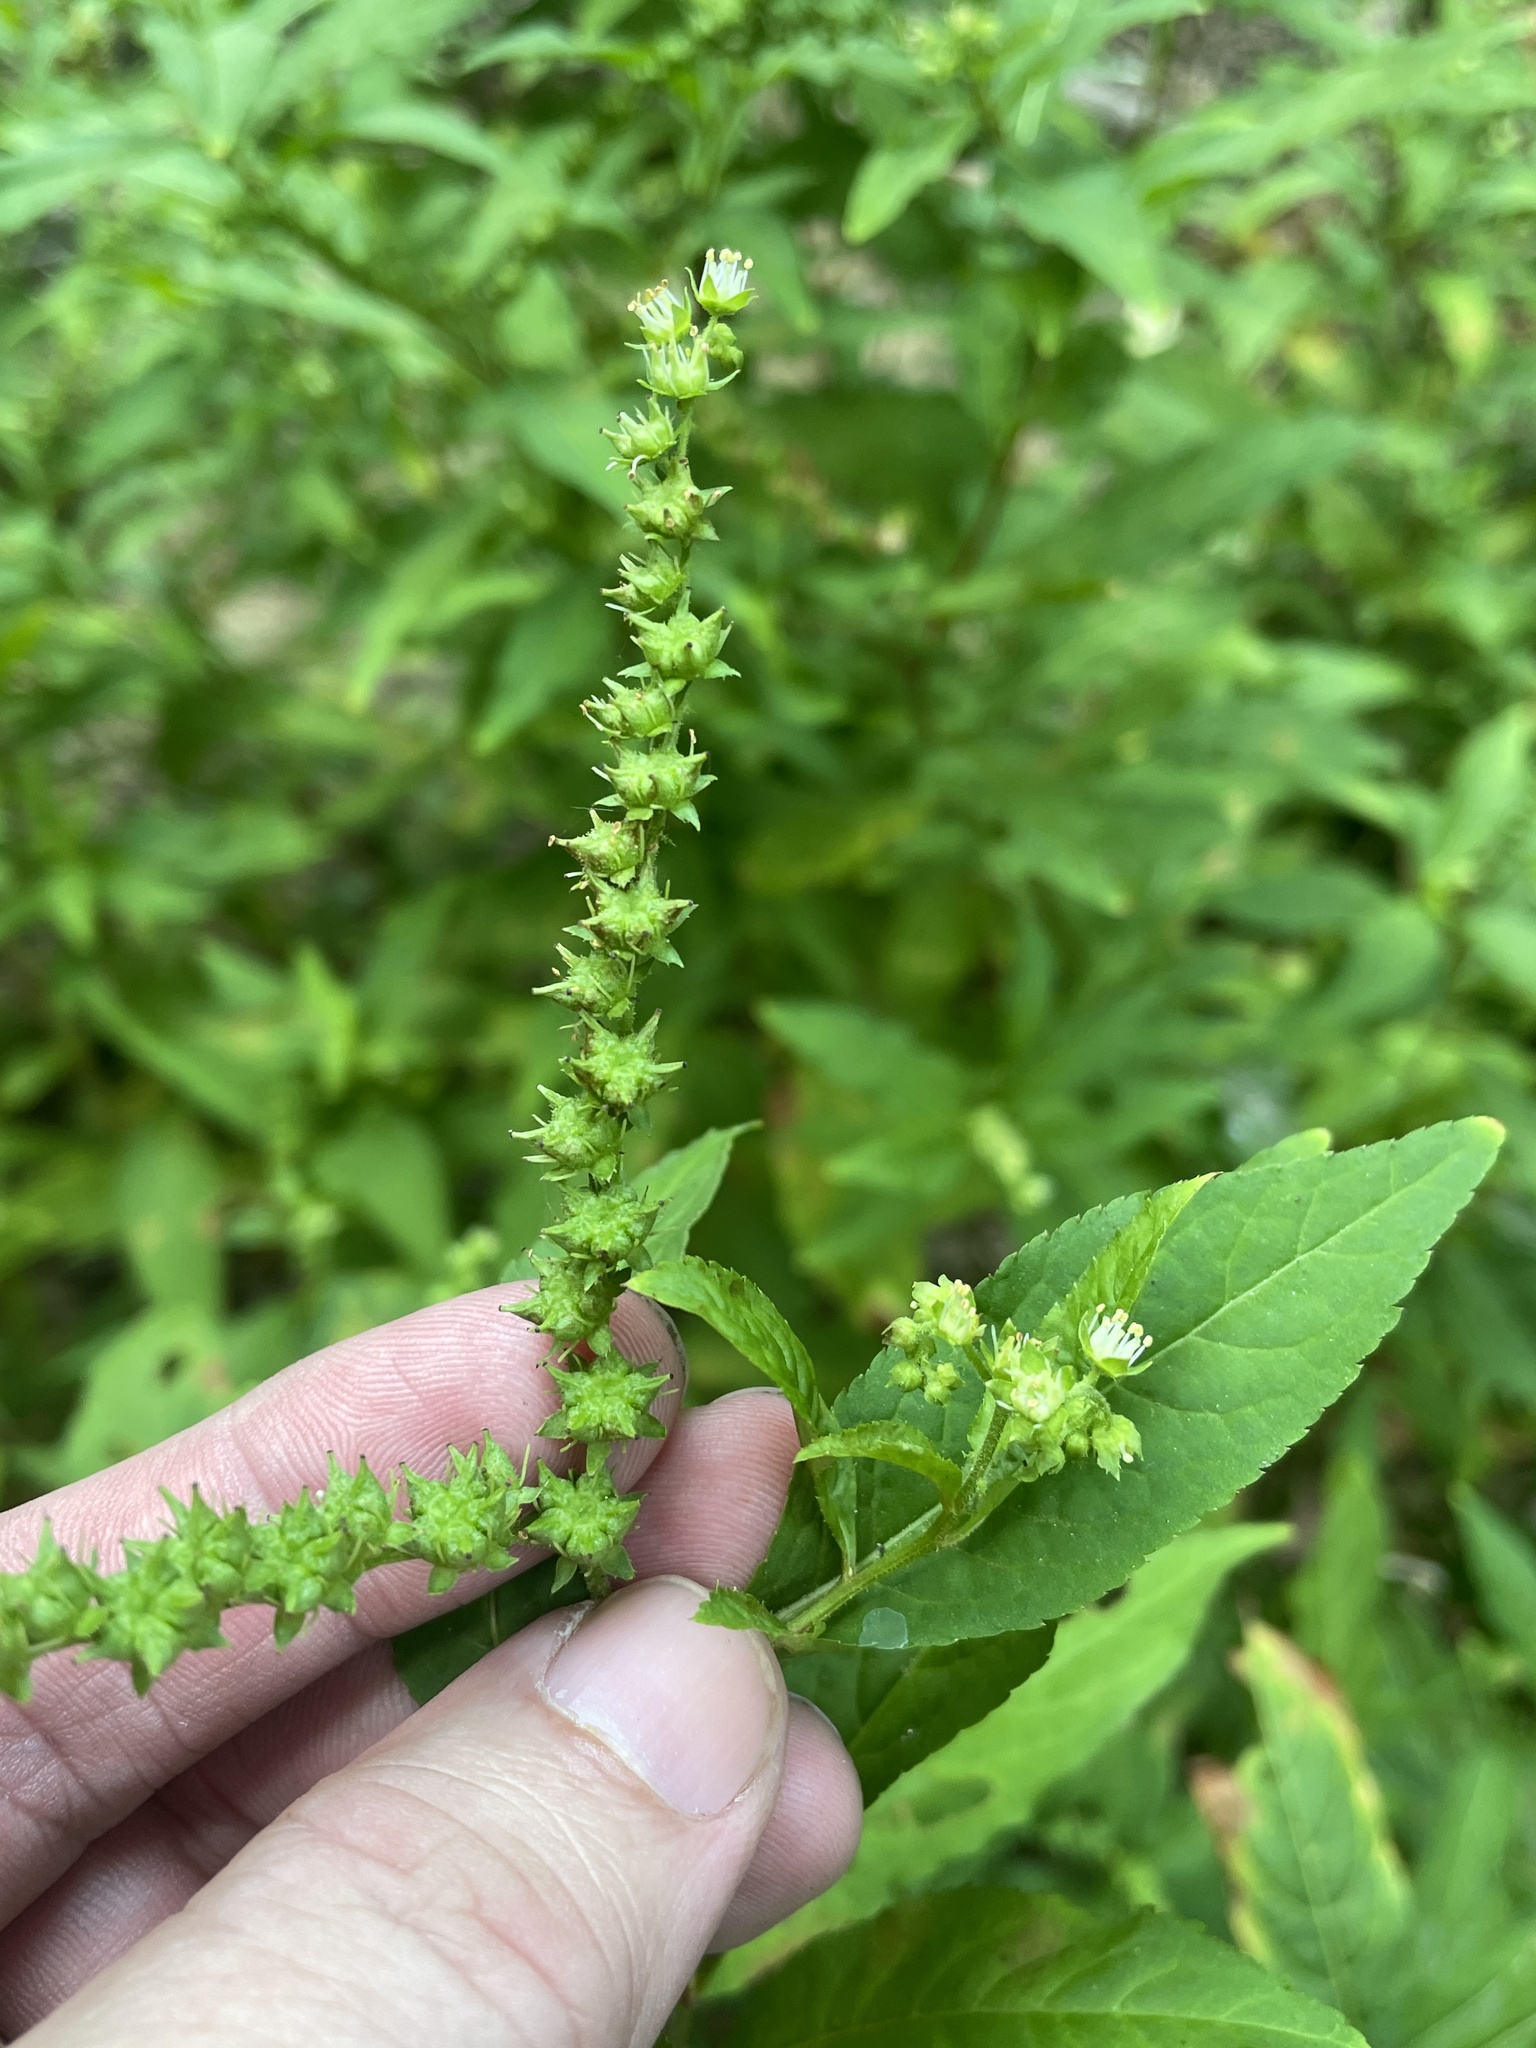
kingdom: Plantae
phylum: Tracheophyta
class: Magnoliopsida
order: Saxifragales
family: Penthoraceae
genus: Penthorum
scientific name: Penthorum sedoides
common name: Ditch stonecrop
